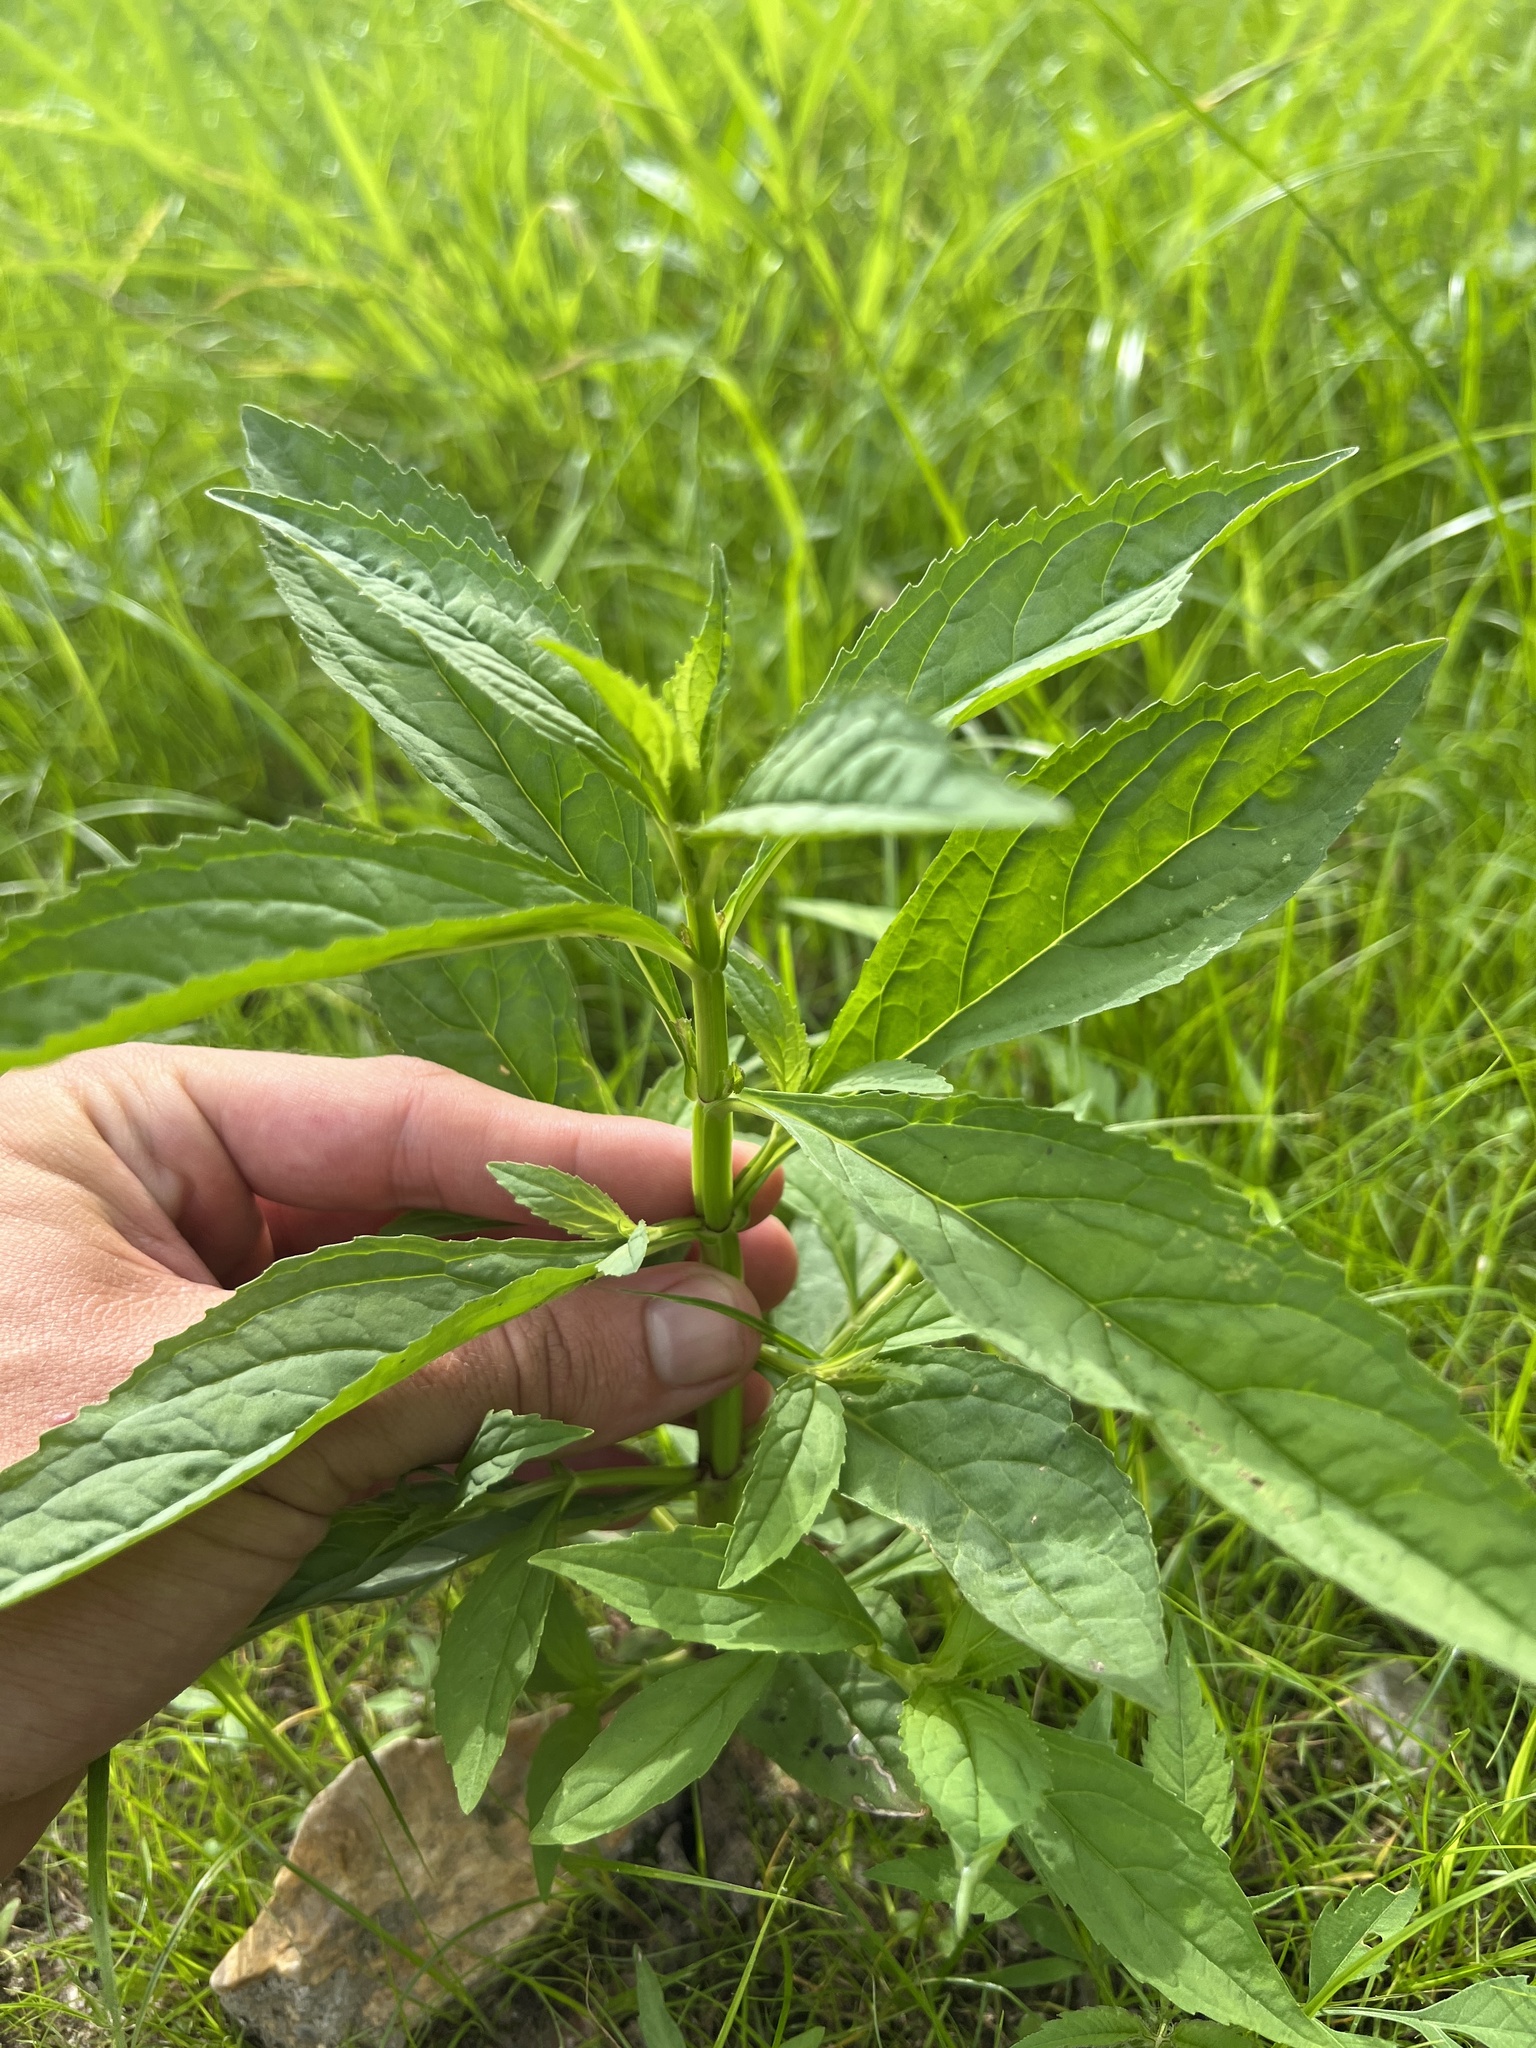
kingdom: Plantae
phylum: Tracheophyta
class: Magnoliopsida
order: Lamiales
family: Phrymaceae
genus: Mimulus
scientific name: Mimulus alatus
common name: Sharp-wing monkey-flower
